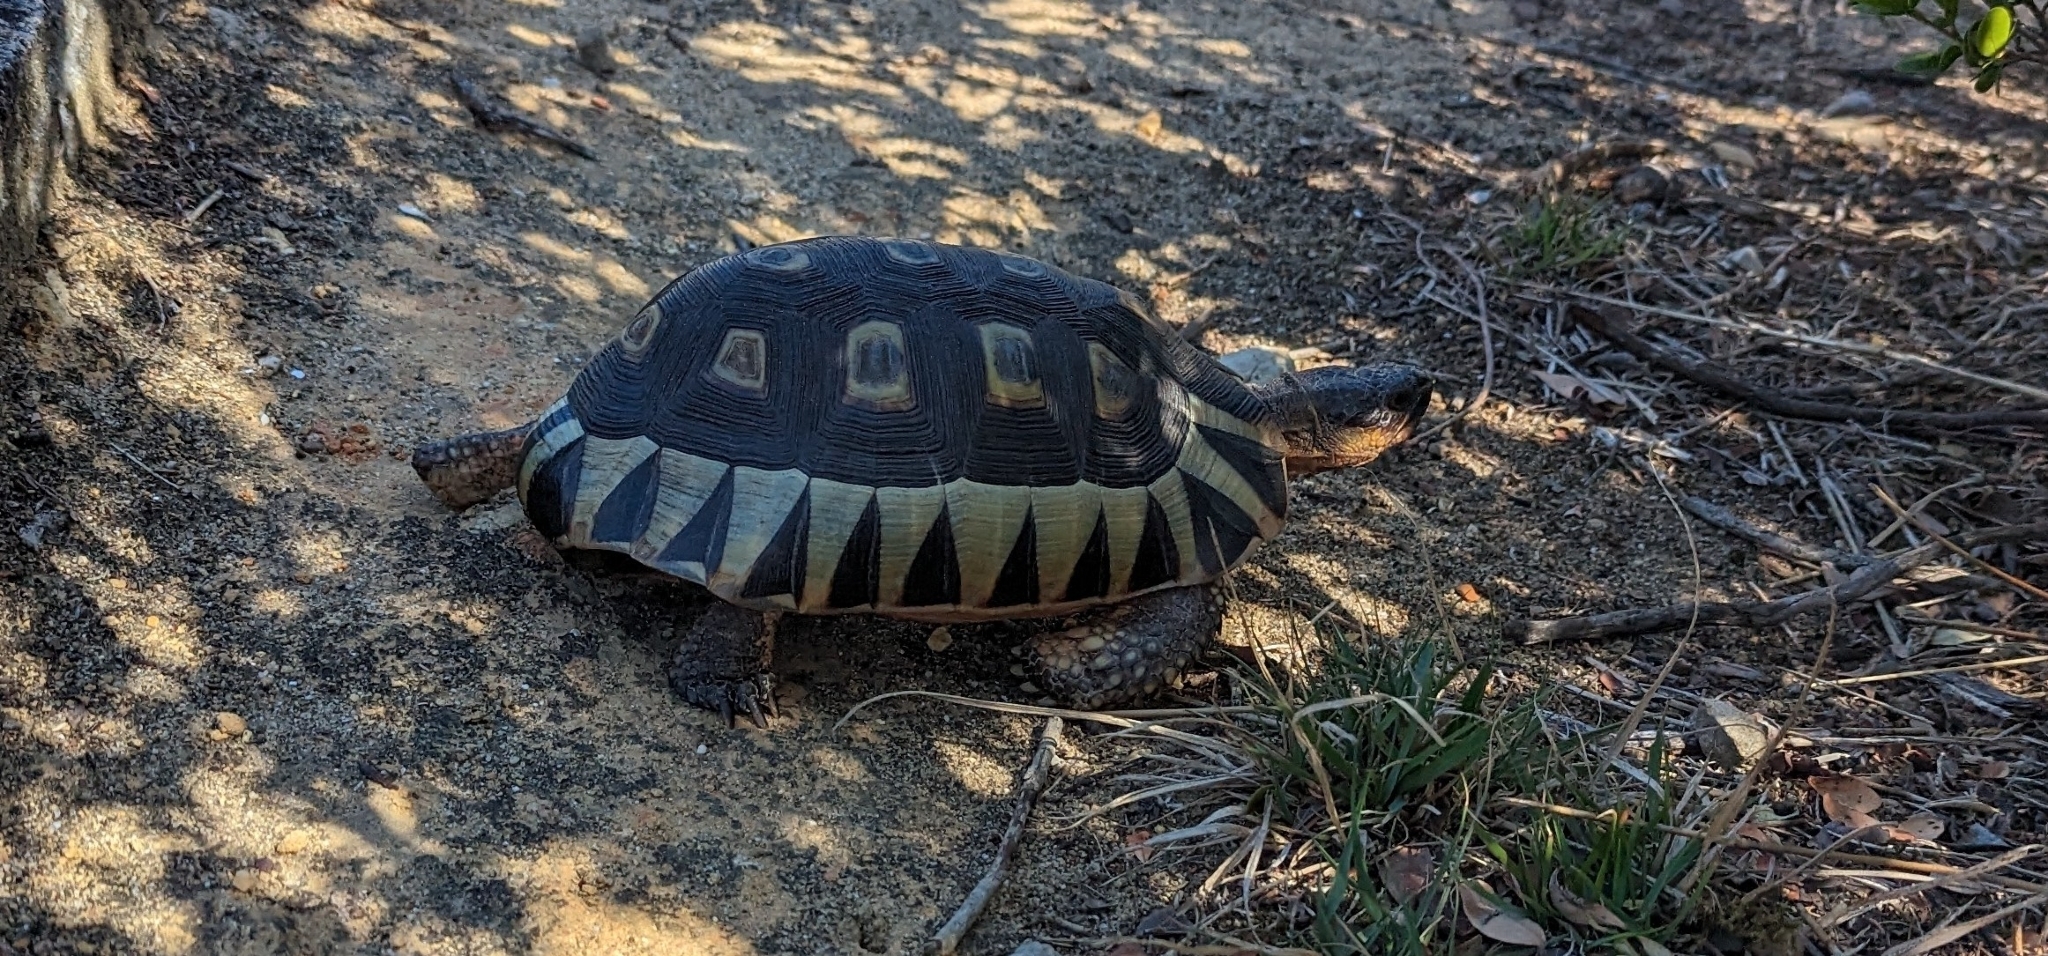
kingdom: Animalia
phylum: Chordata
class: Testudines
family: Testudinidae
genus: Chersina
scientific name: Chersina angulata
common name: South african bowsprit tortoise
